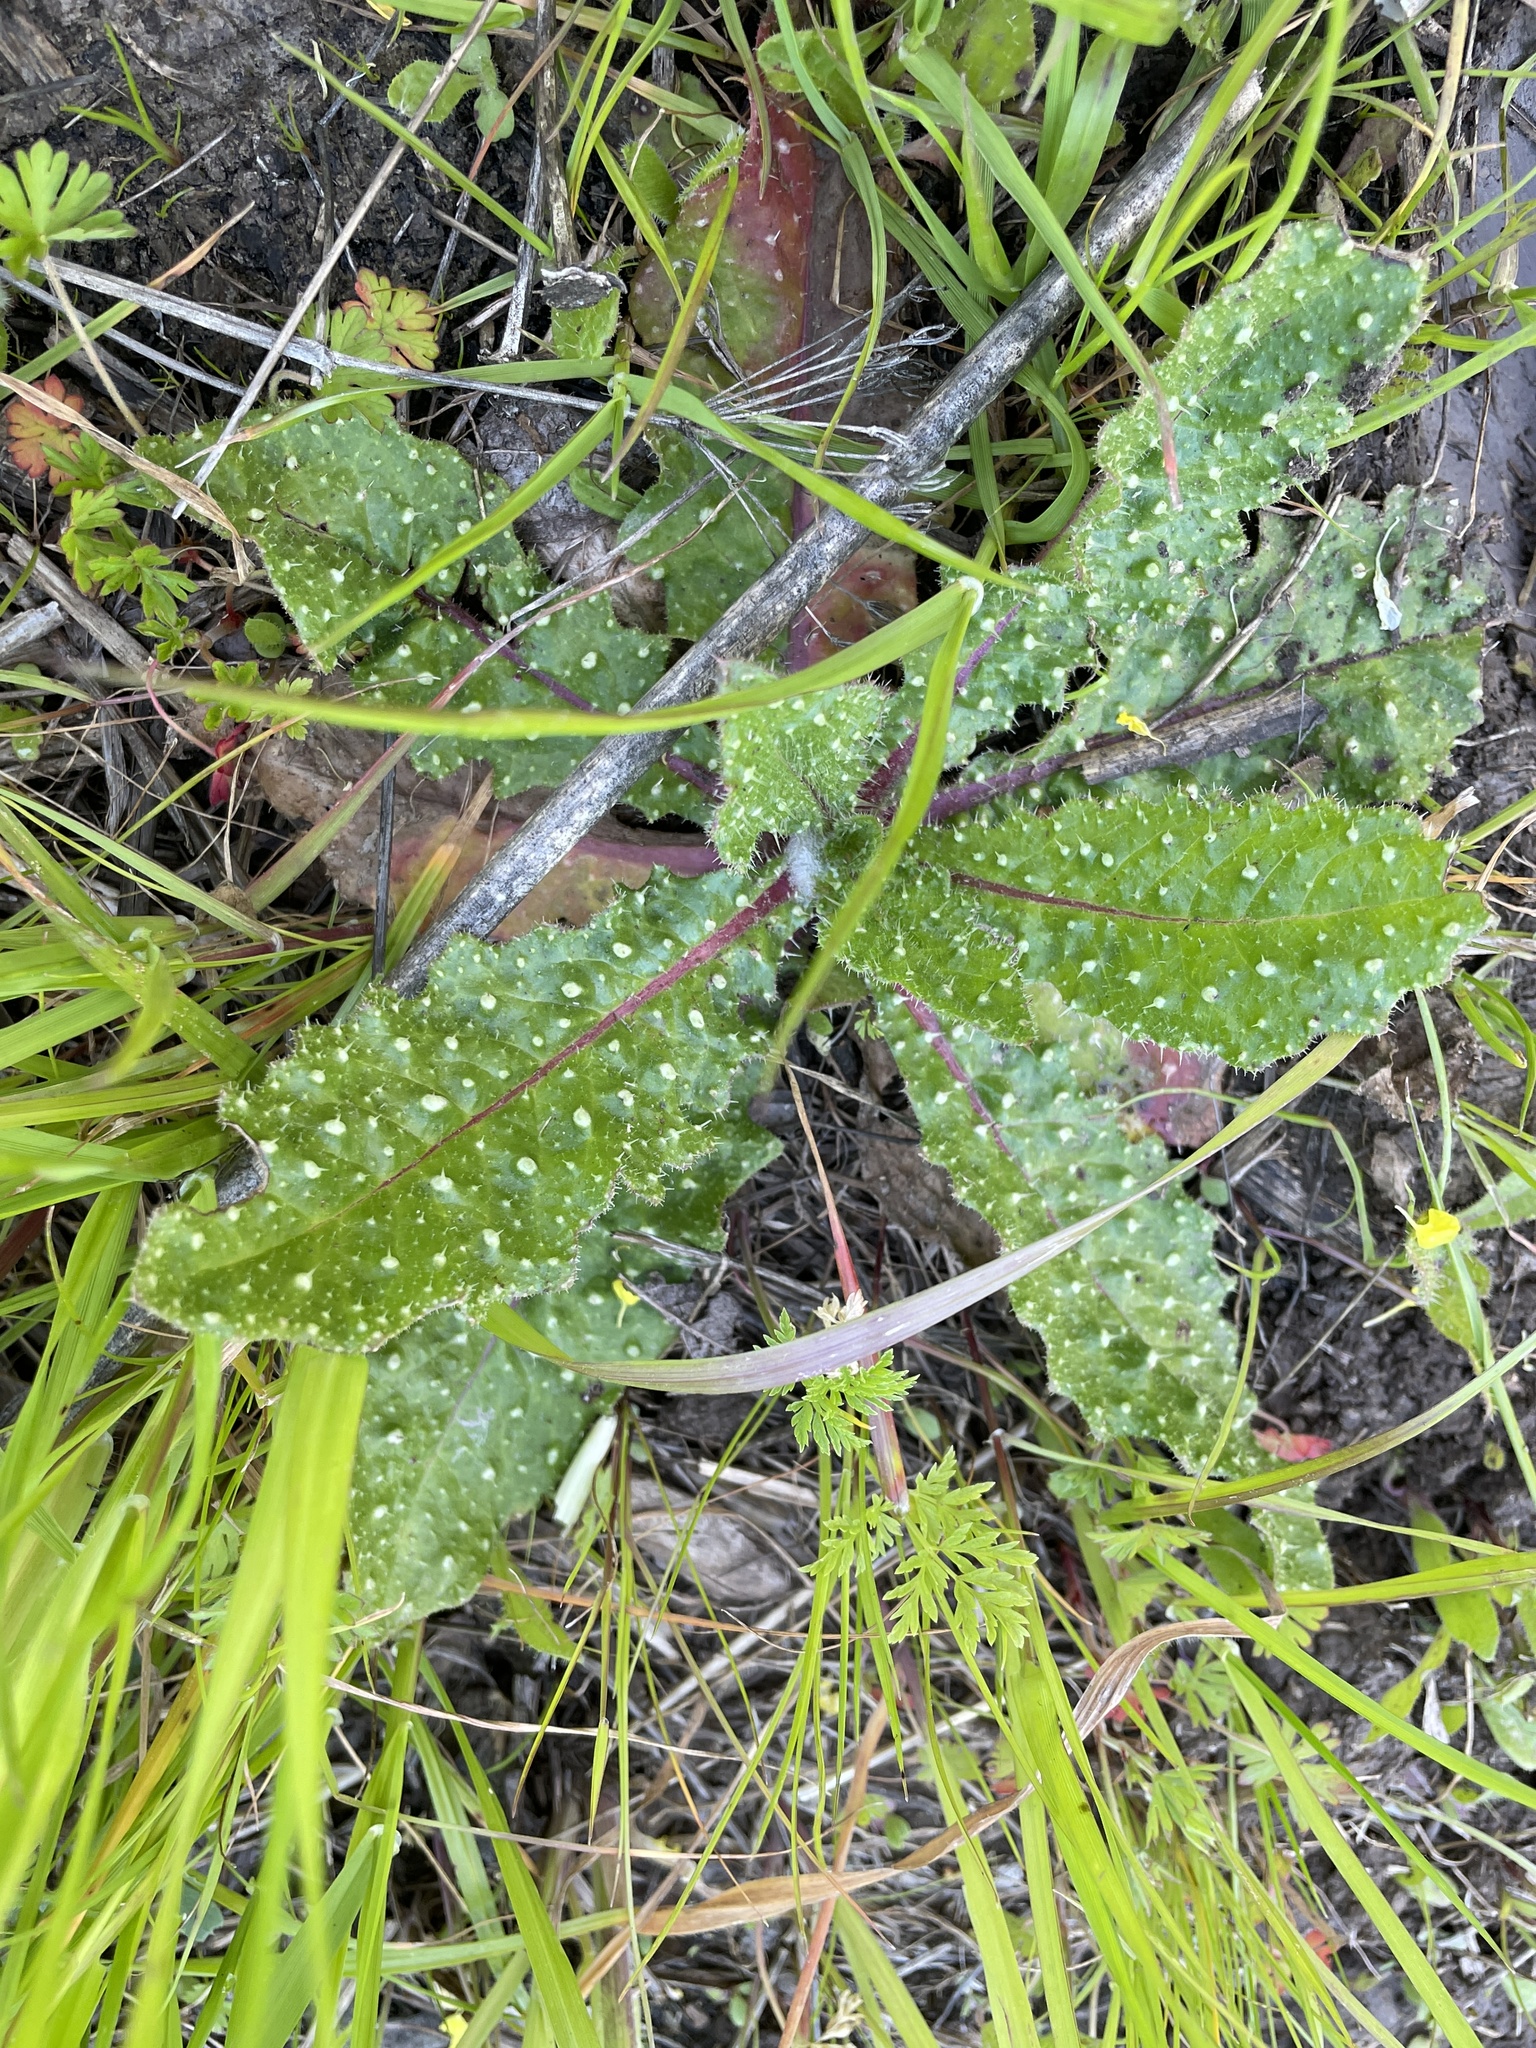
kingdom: Plantae
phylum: Tracheophyta
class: Magnoliopsida
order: Asterales
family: Asteraceae
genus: Helminthotheca
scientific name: Helminthotheca echioides
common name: Ox-tongue
